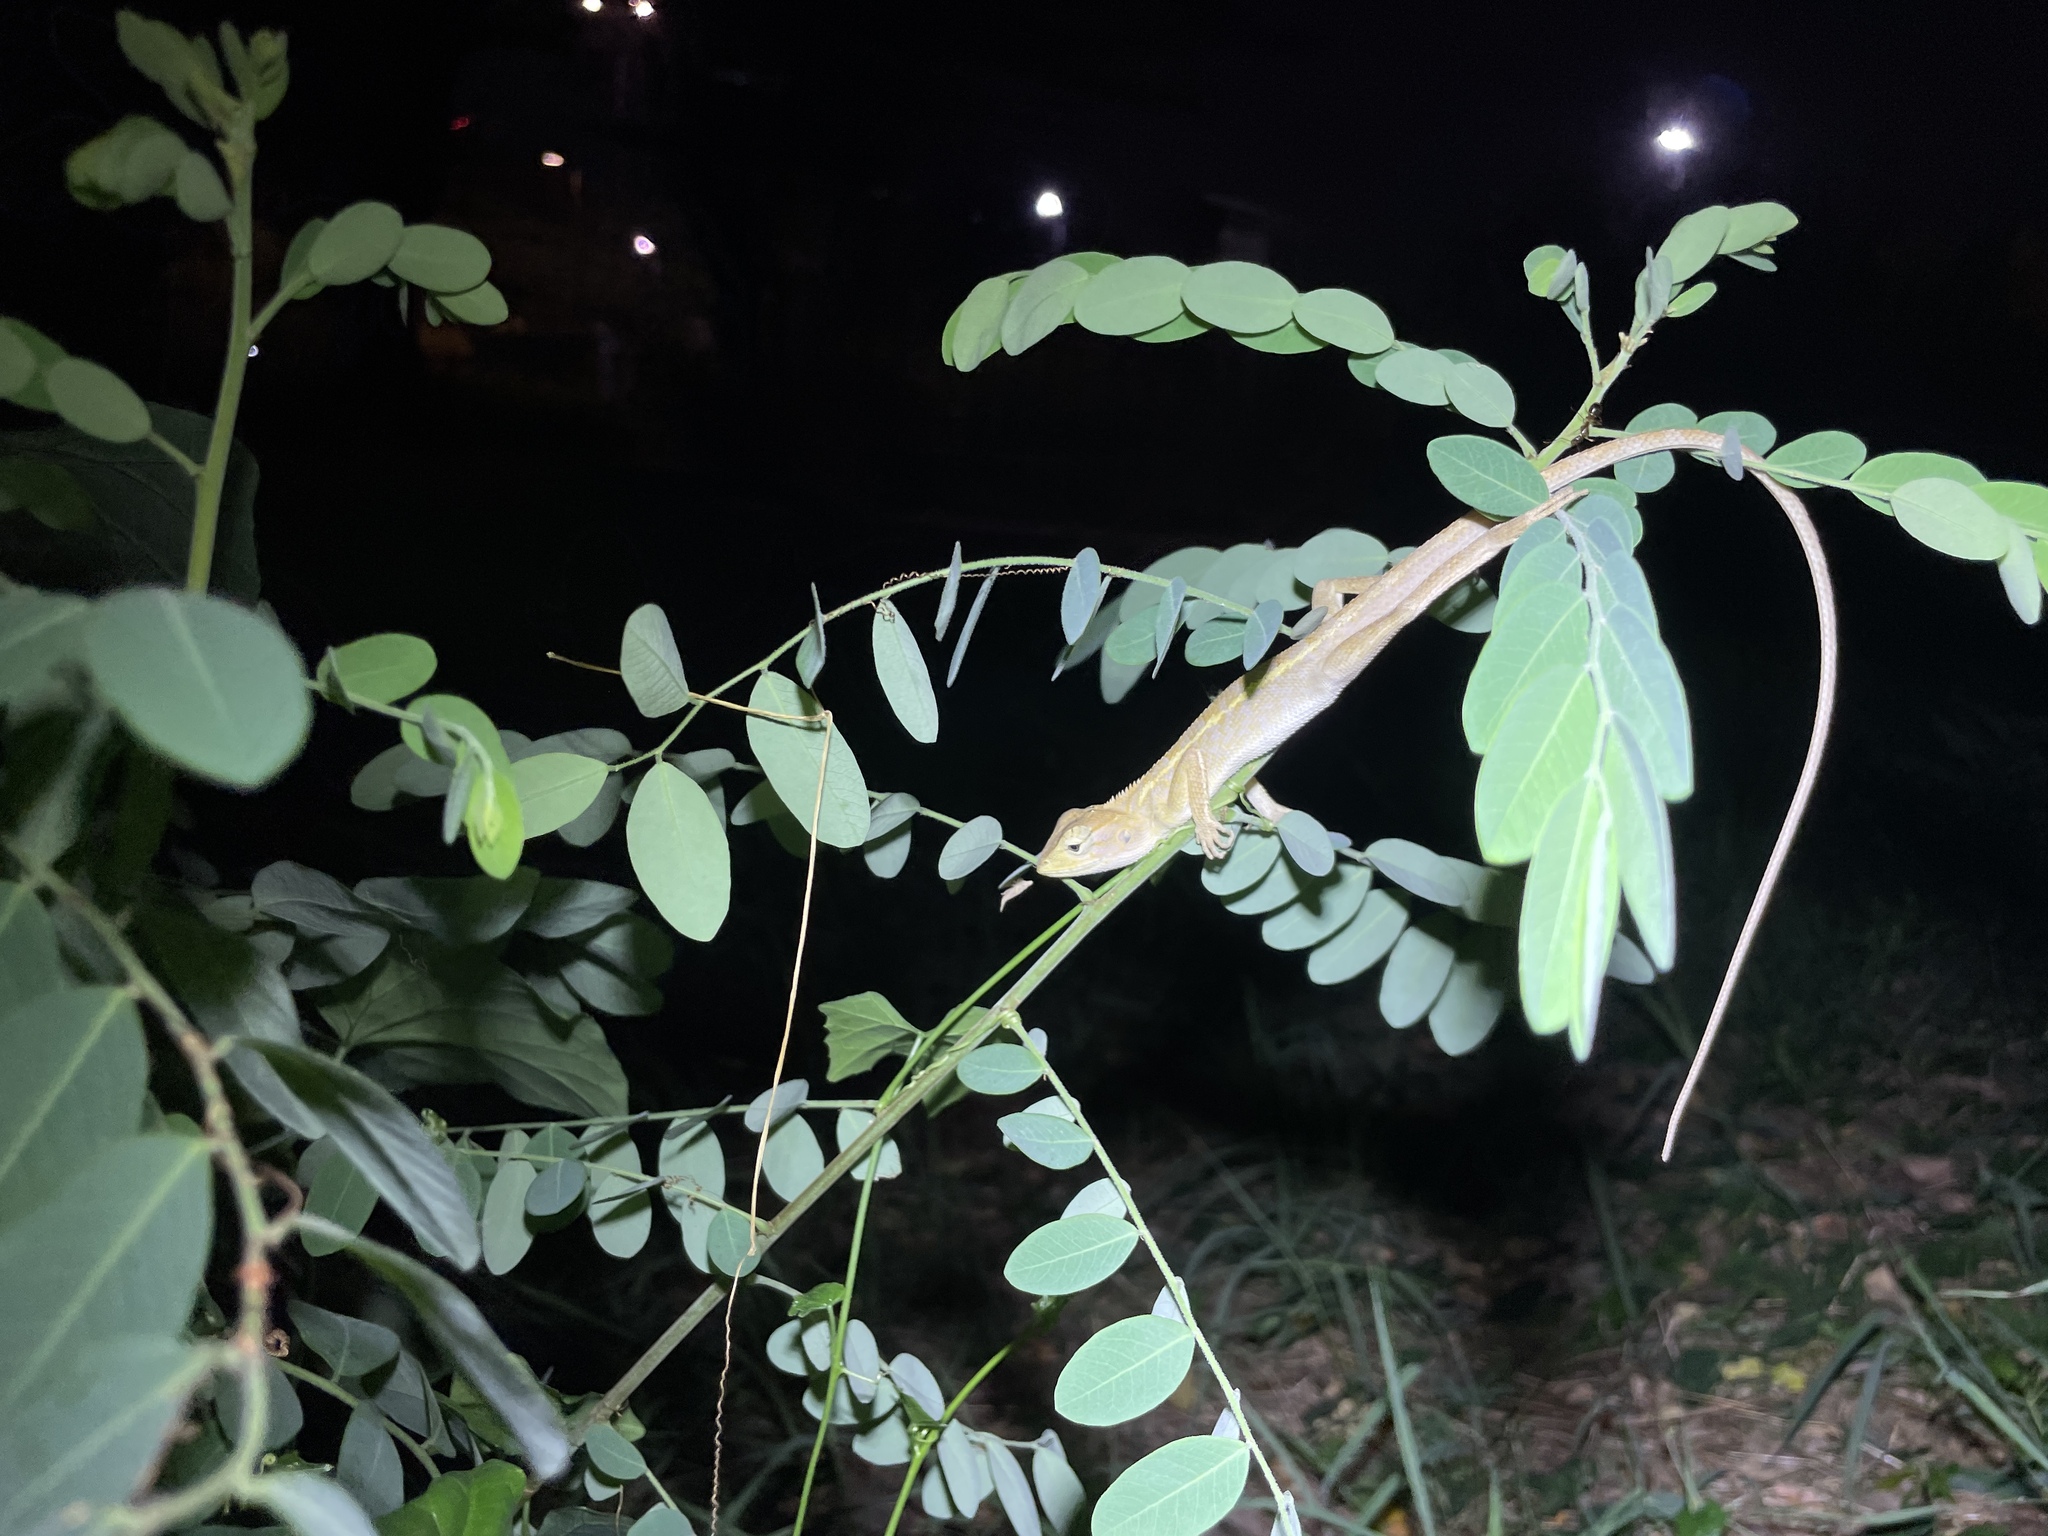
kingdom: Animalia
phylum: Chordata
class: Squamata
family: Agamidae
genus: Calotes
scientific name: Calotes versicolor
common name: Oriental garden lizard
